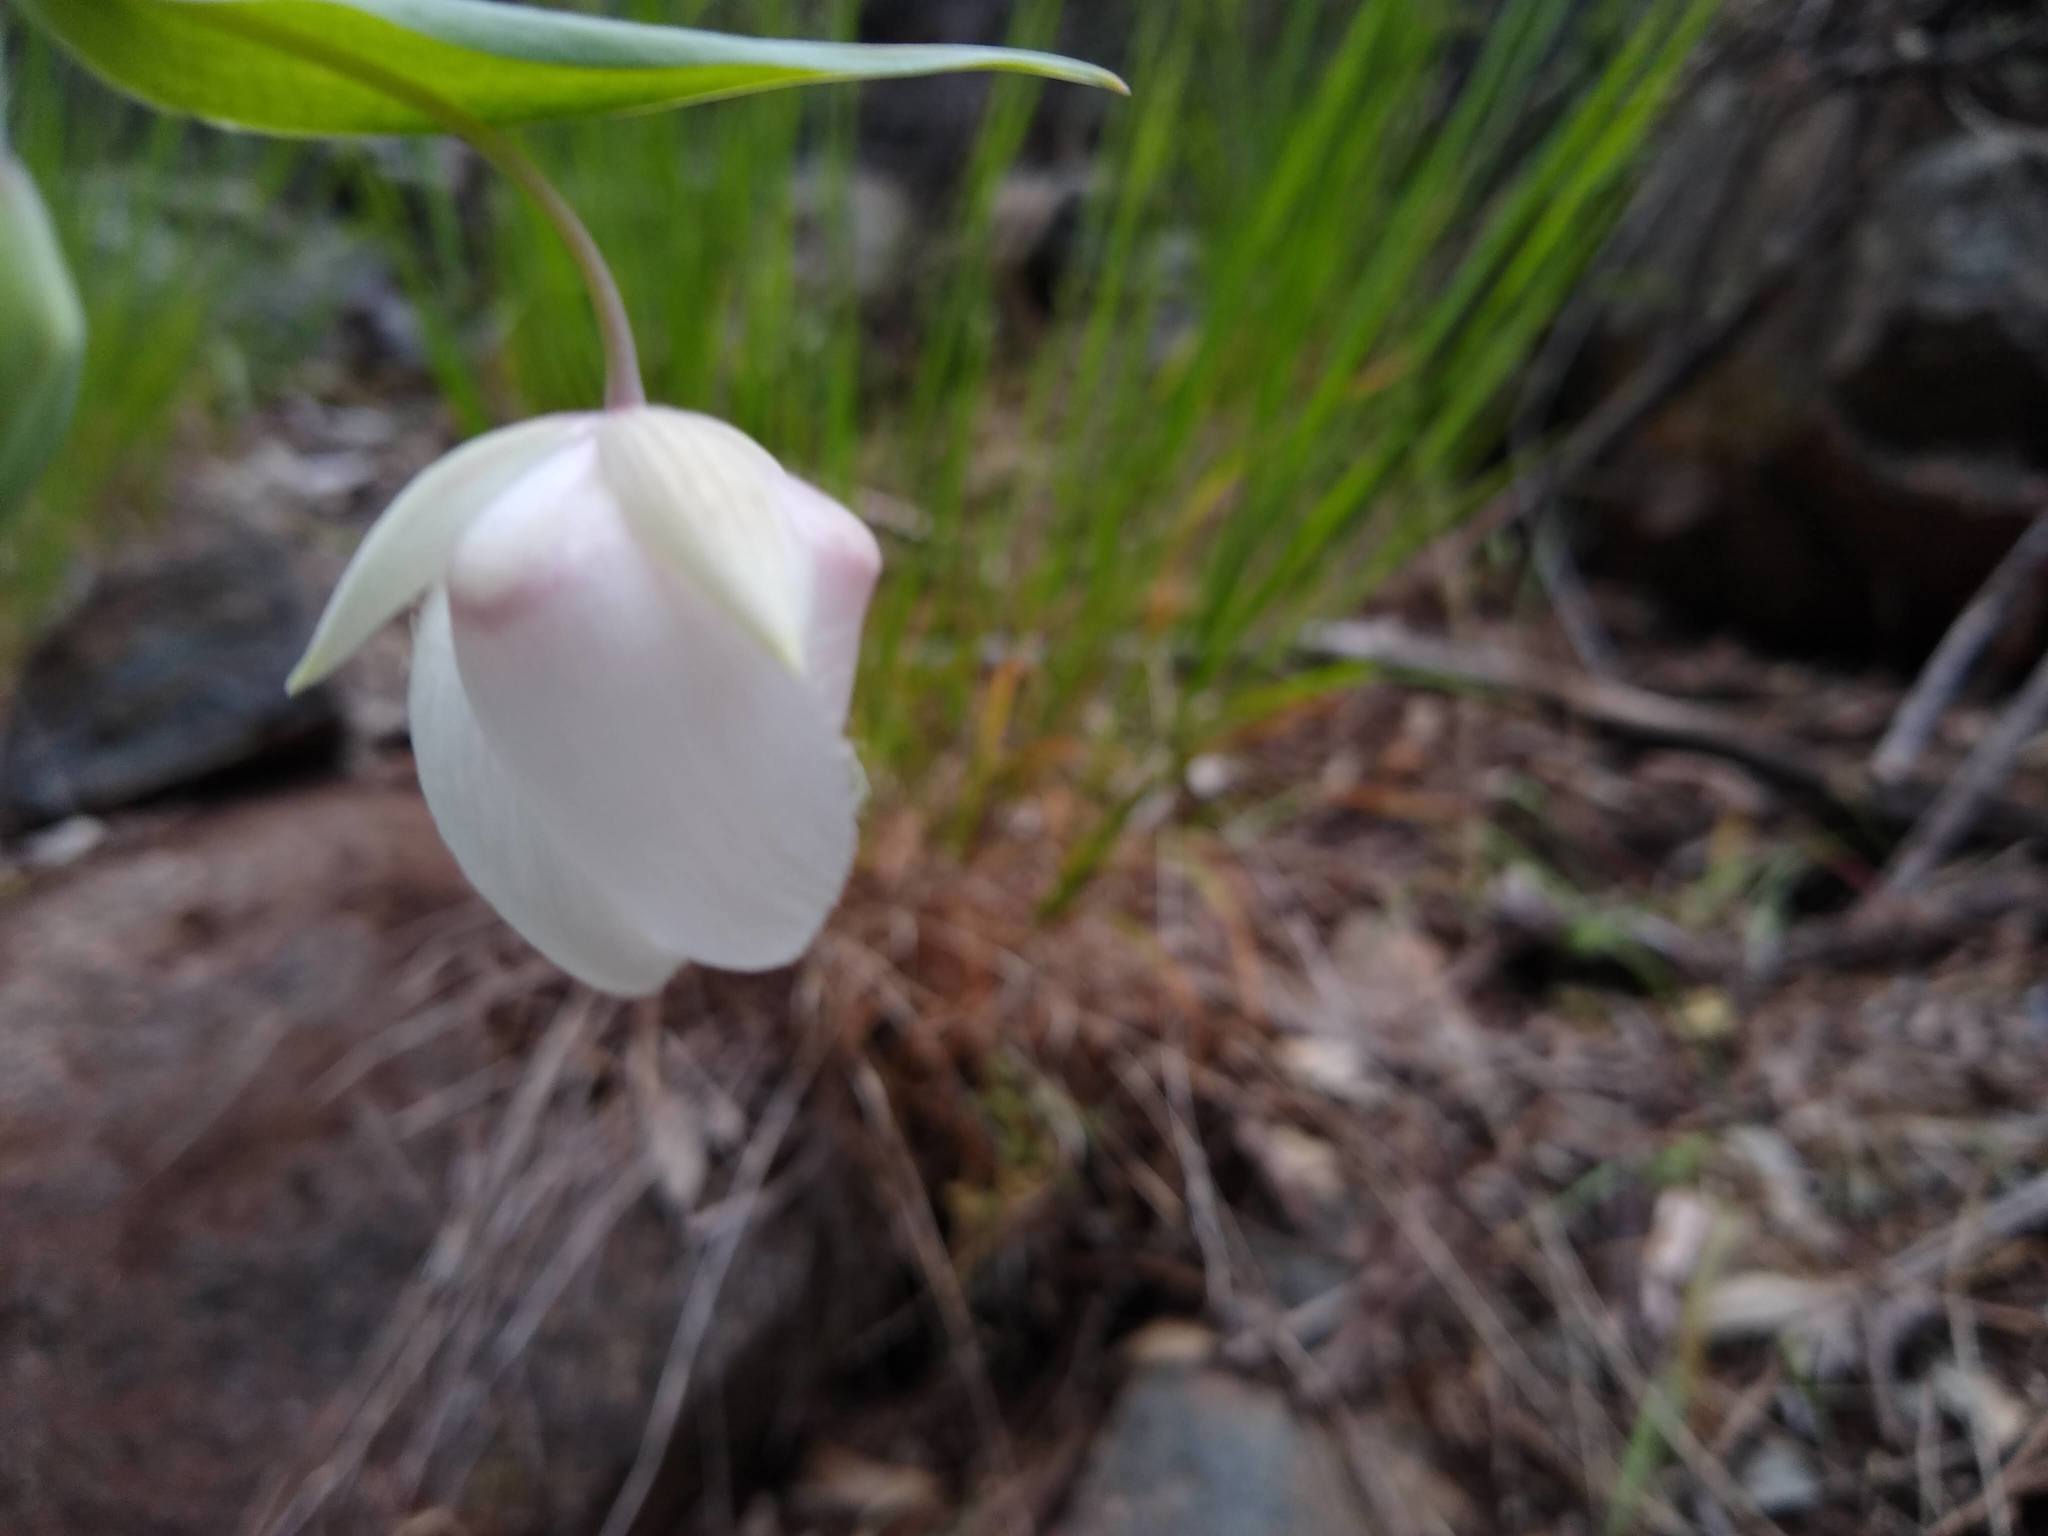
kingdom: Plantae
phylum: Tracheophyta
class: Liliopsida
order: Liliales
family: Liliaceae
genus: Calochortus
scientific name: Calochortus albus
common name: Fairy-lantern
